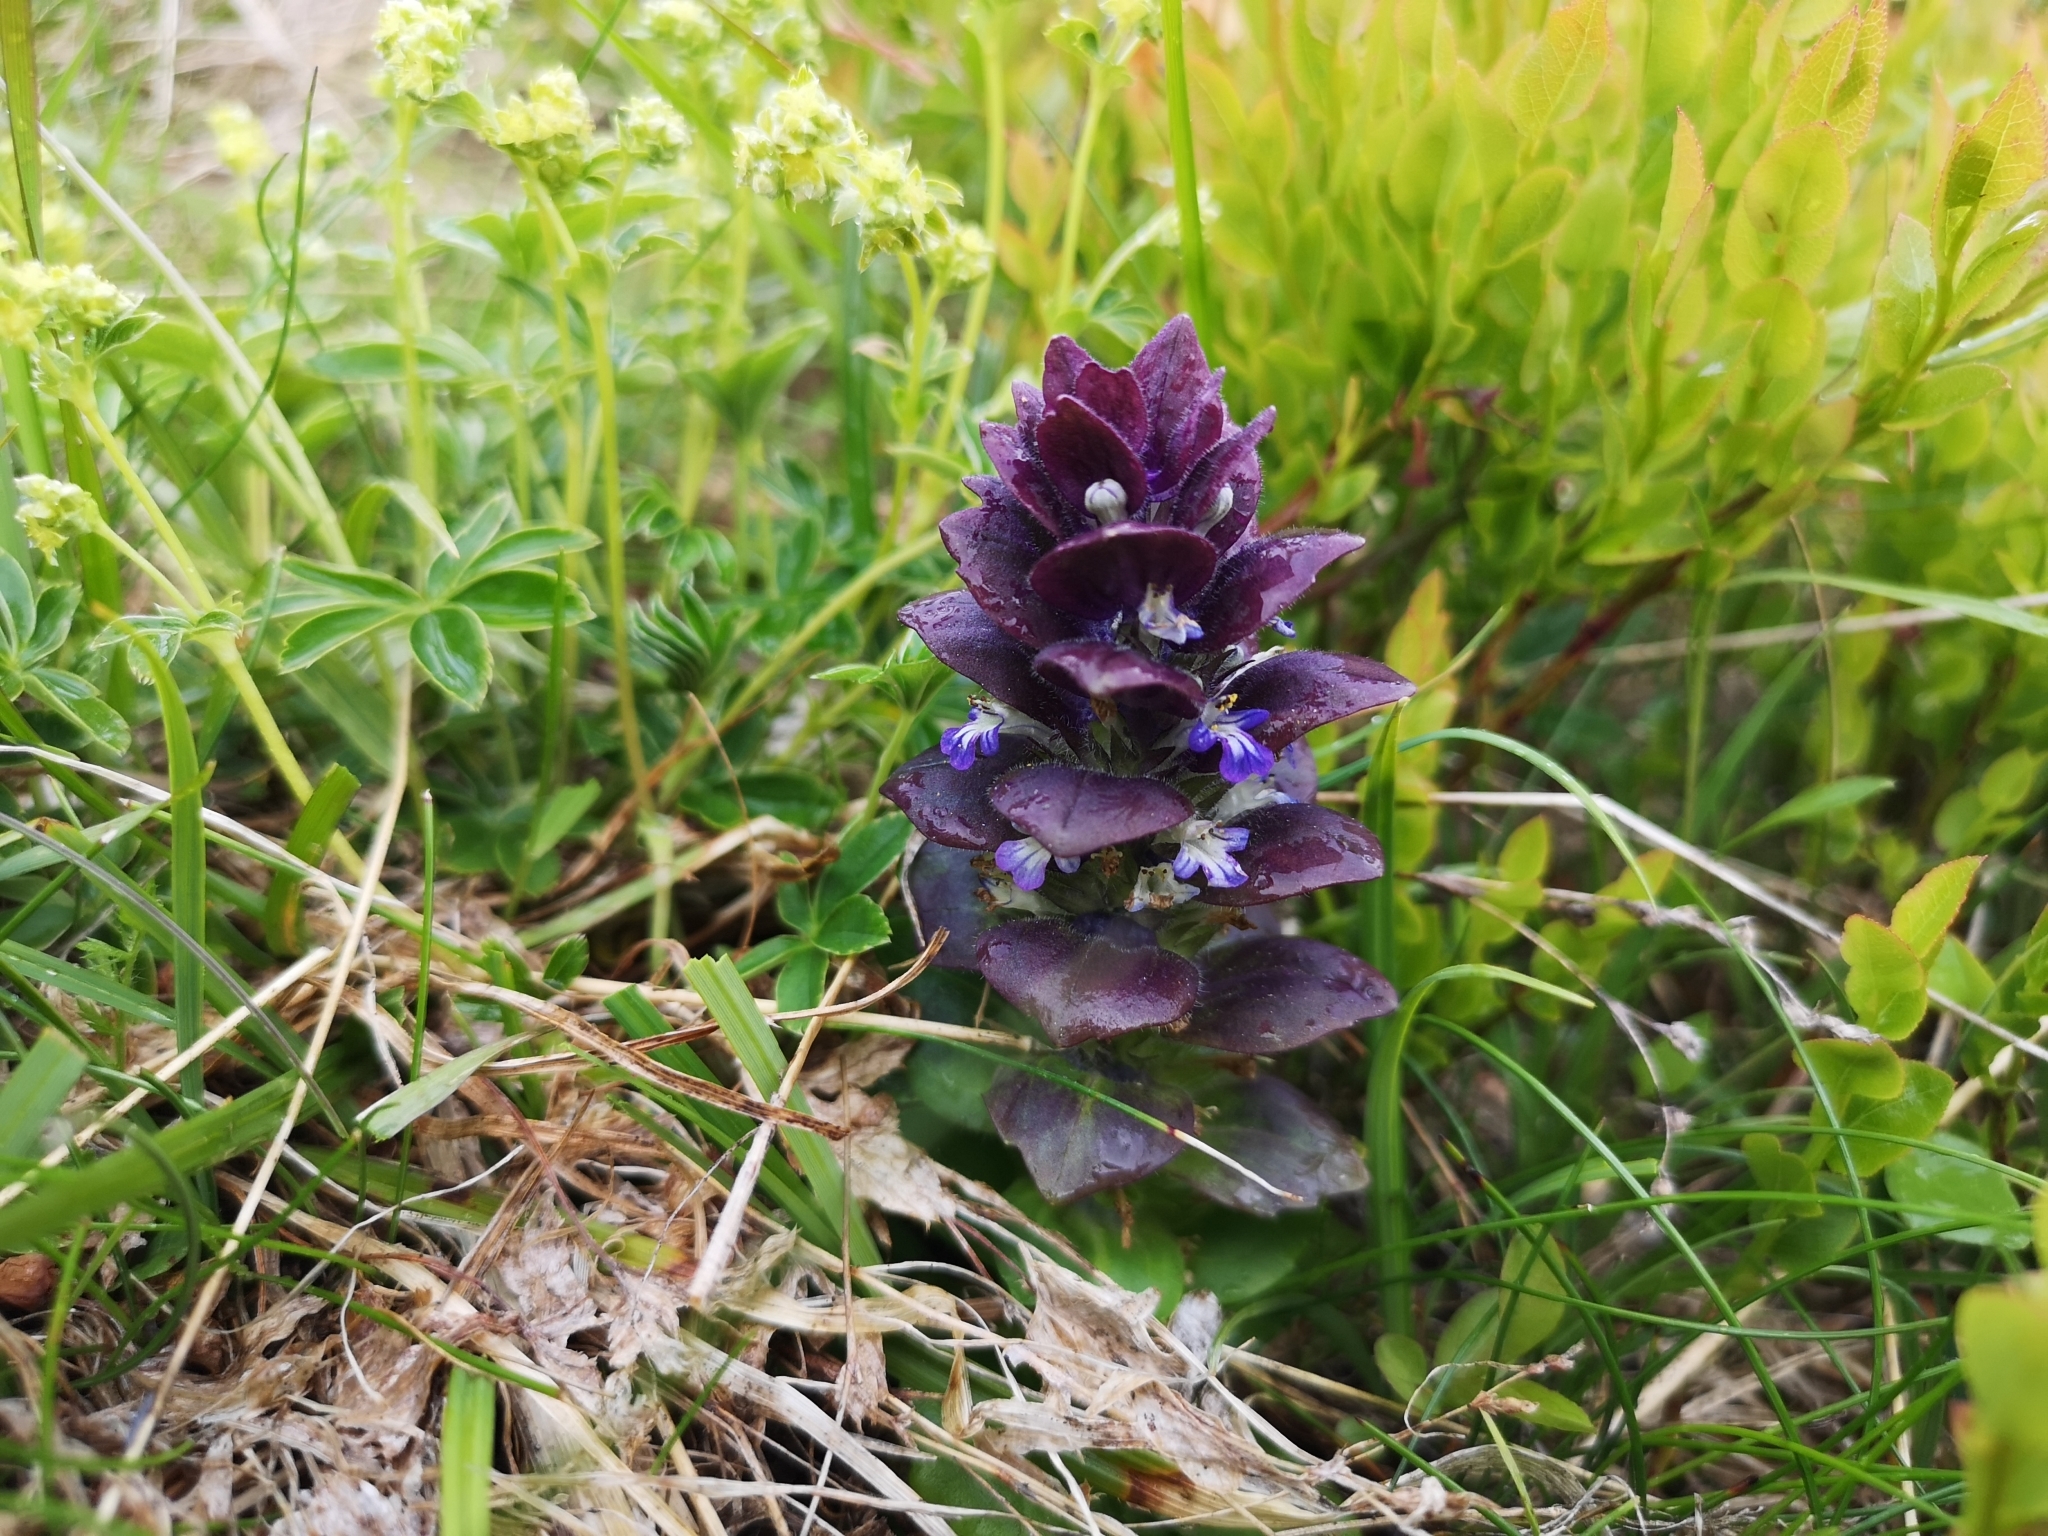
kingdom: Plantae
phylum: Tracheophyta
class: Magnoliopsida
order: Lamiales
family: Lamiaceae
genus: Ajuga
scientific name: Ajuga pyramidalis
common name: Pyramid bugle
